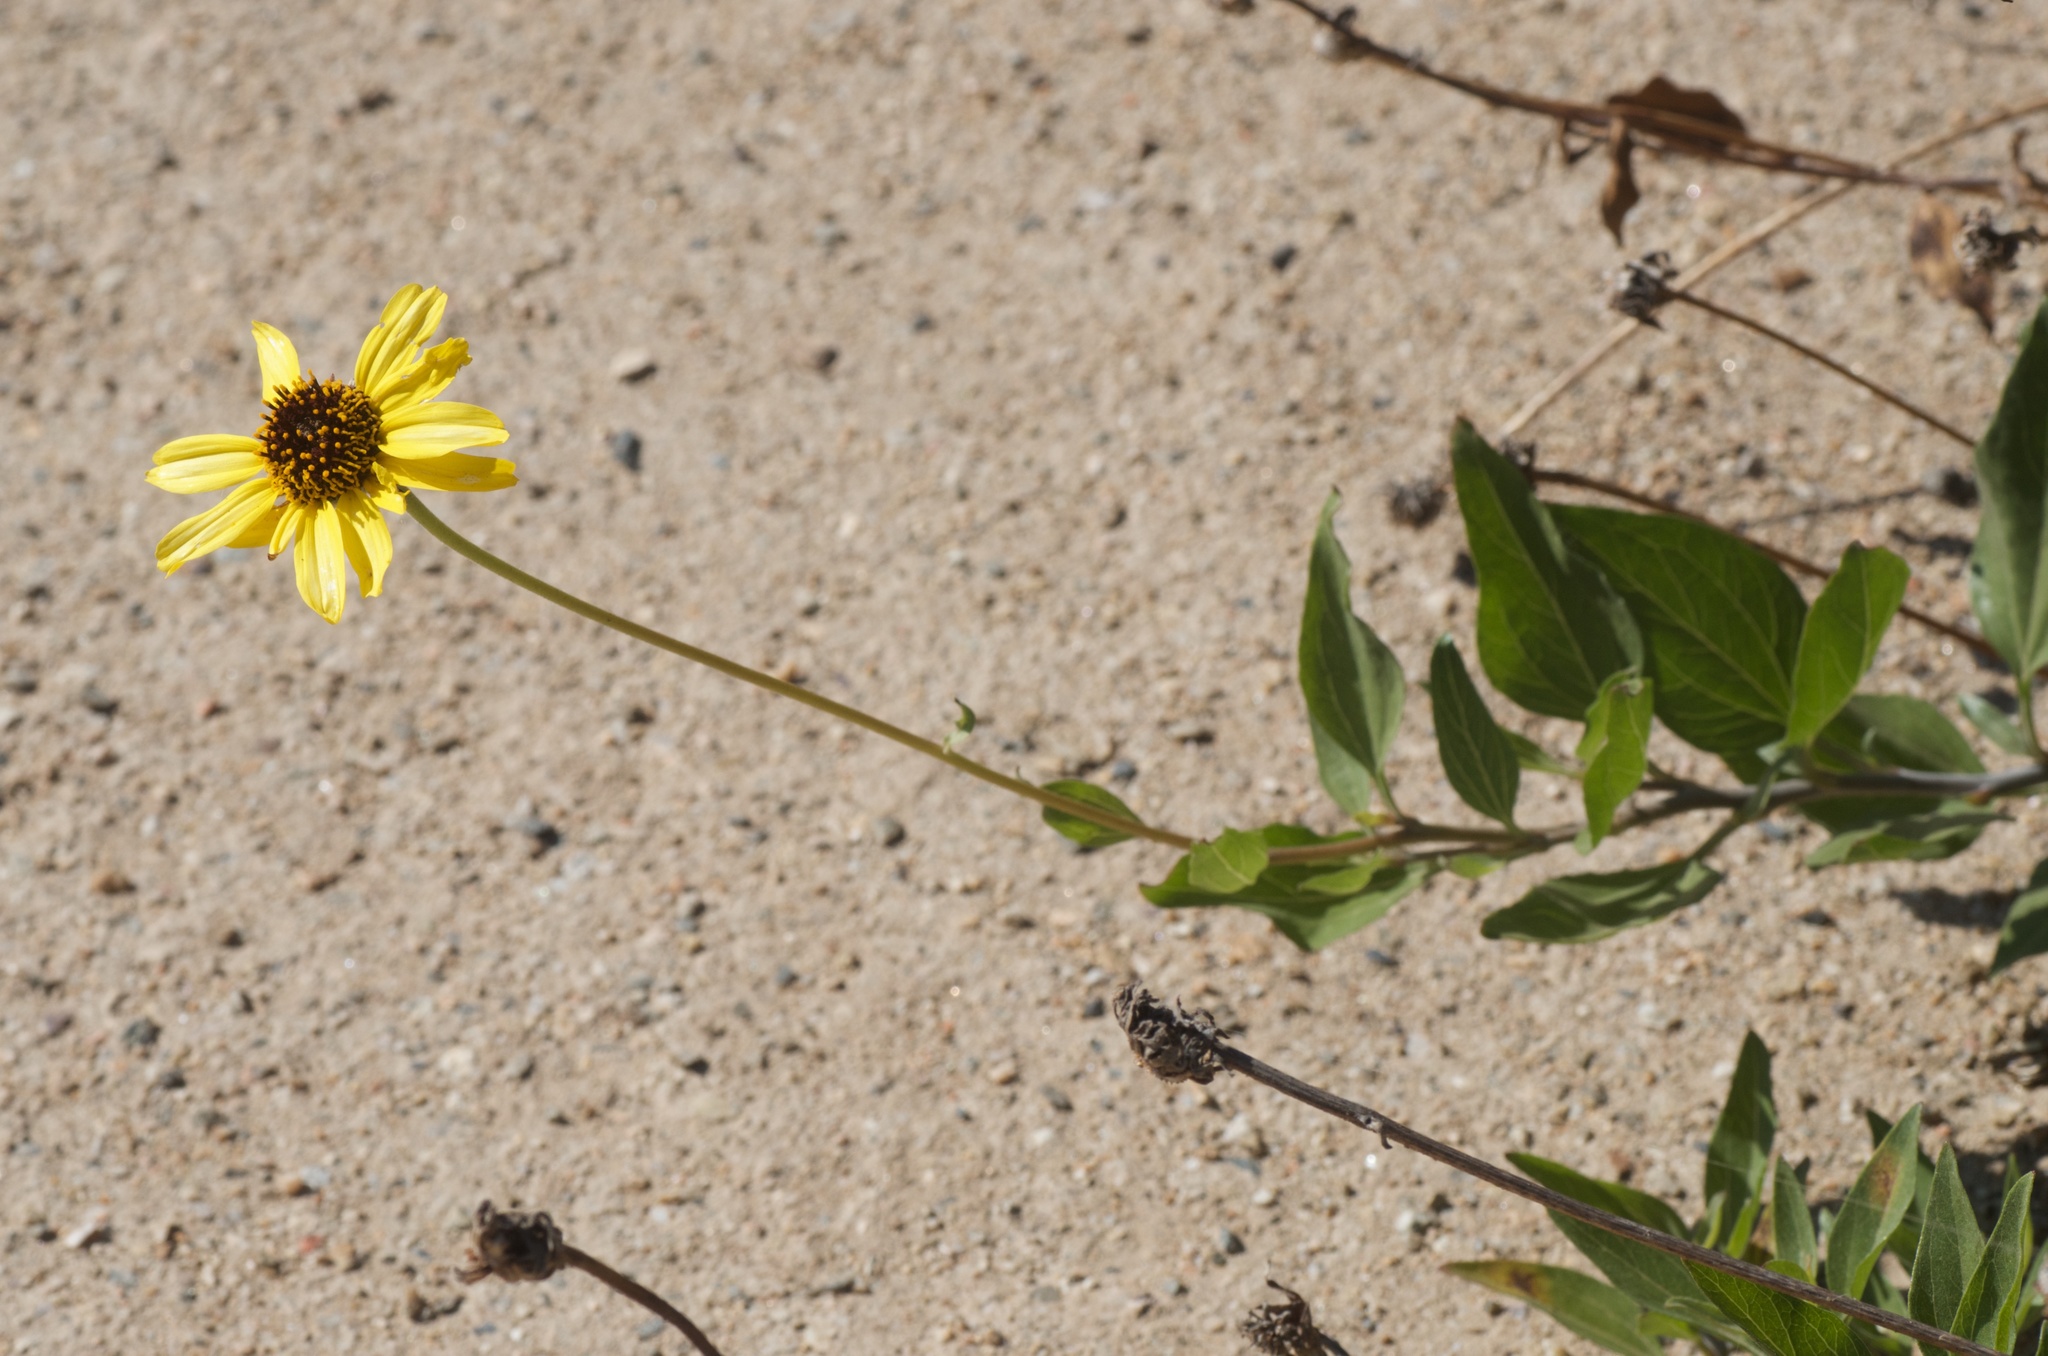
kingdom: Plantae
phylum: Tracheophyta
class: Magnoliopsida
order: Asterales
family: Asteraceae
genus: Encelia
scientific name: Encelia californica
